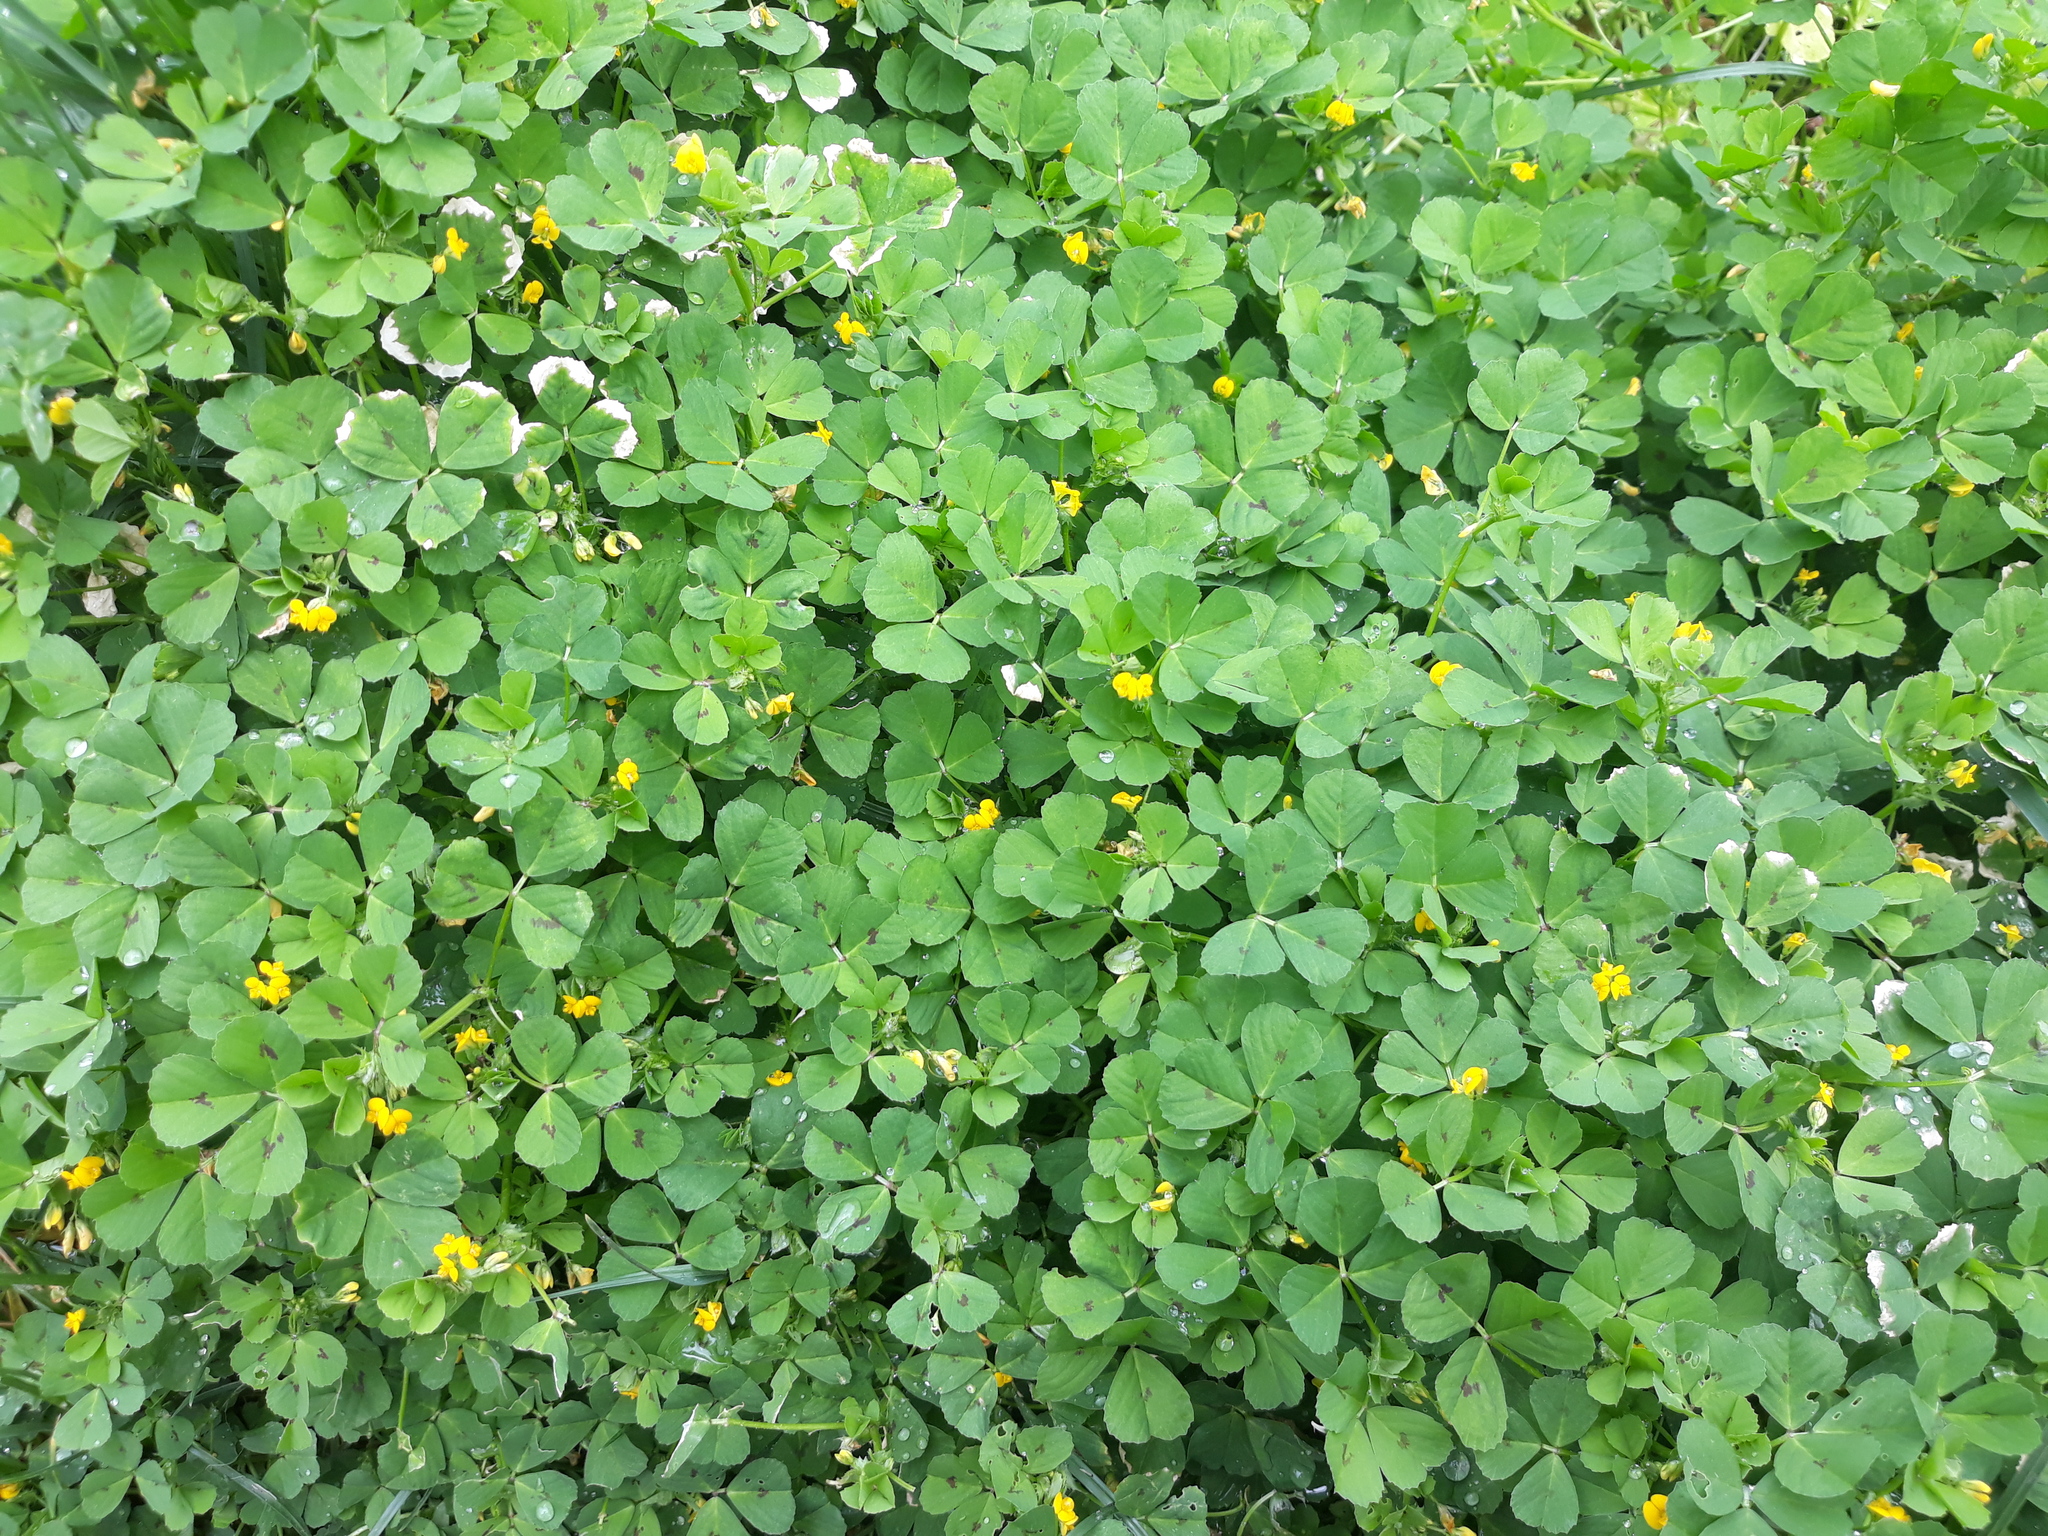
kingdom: Plantae
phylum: Tracheophyta
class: Magnoliopsida
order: Fabales
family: Fabaceae
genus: Medicago
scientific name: Medicago arabica
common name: Spotted medick
